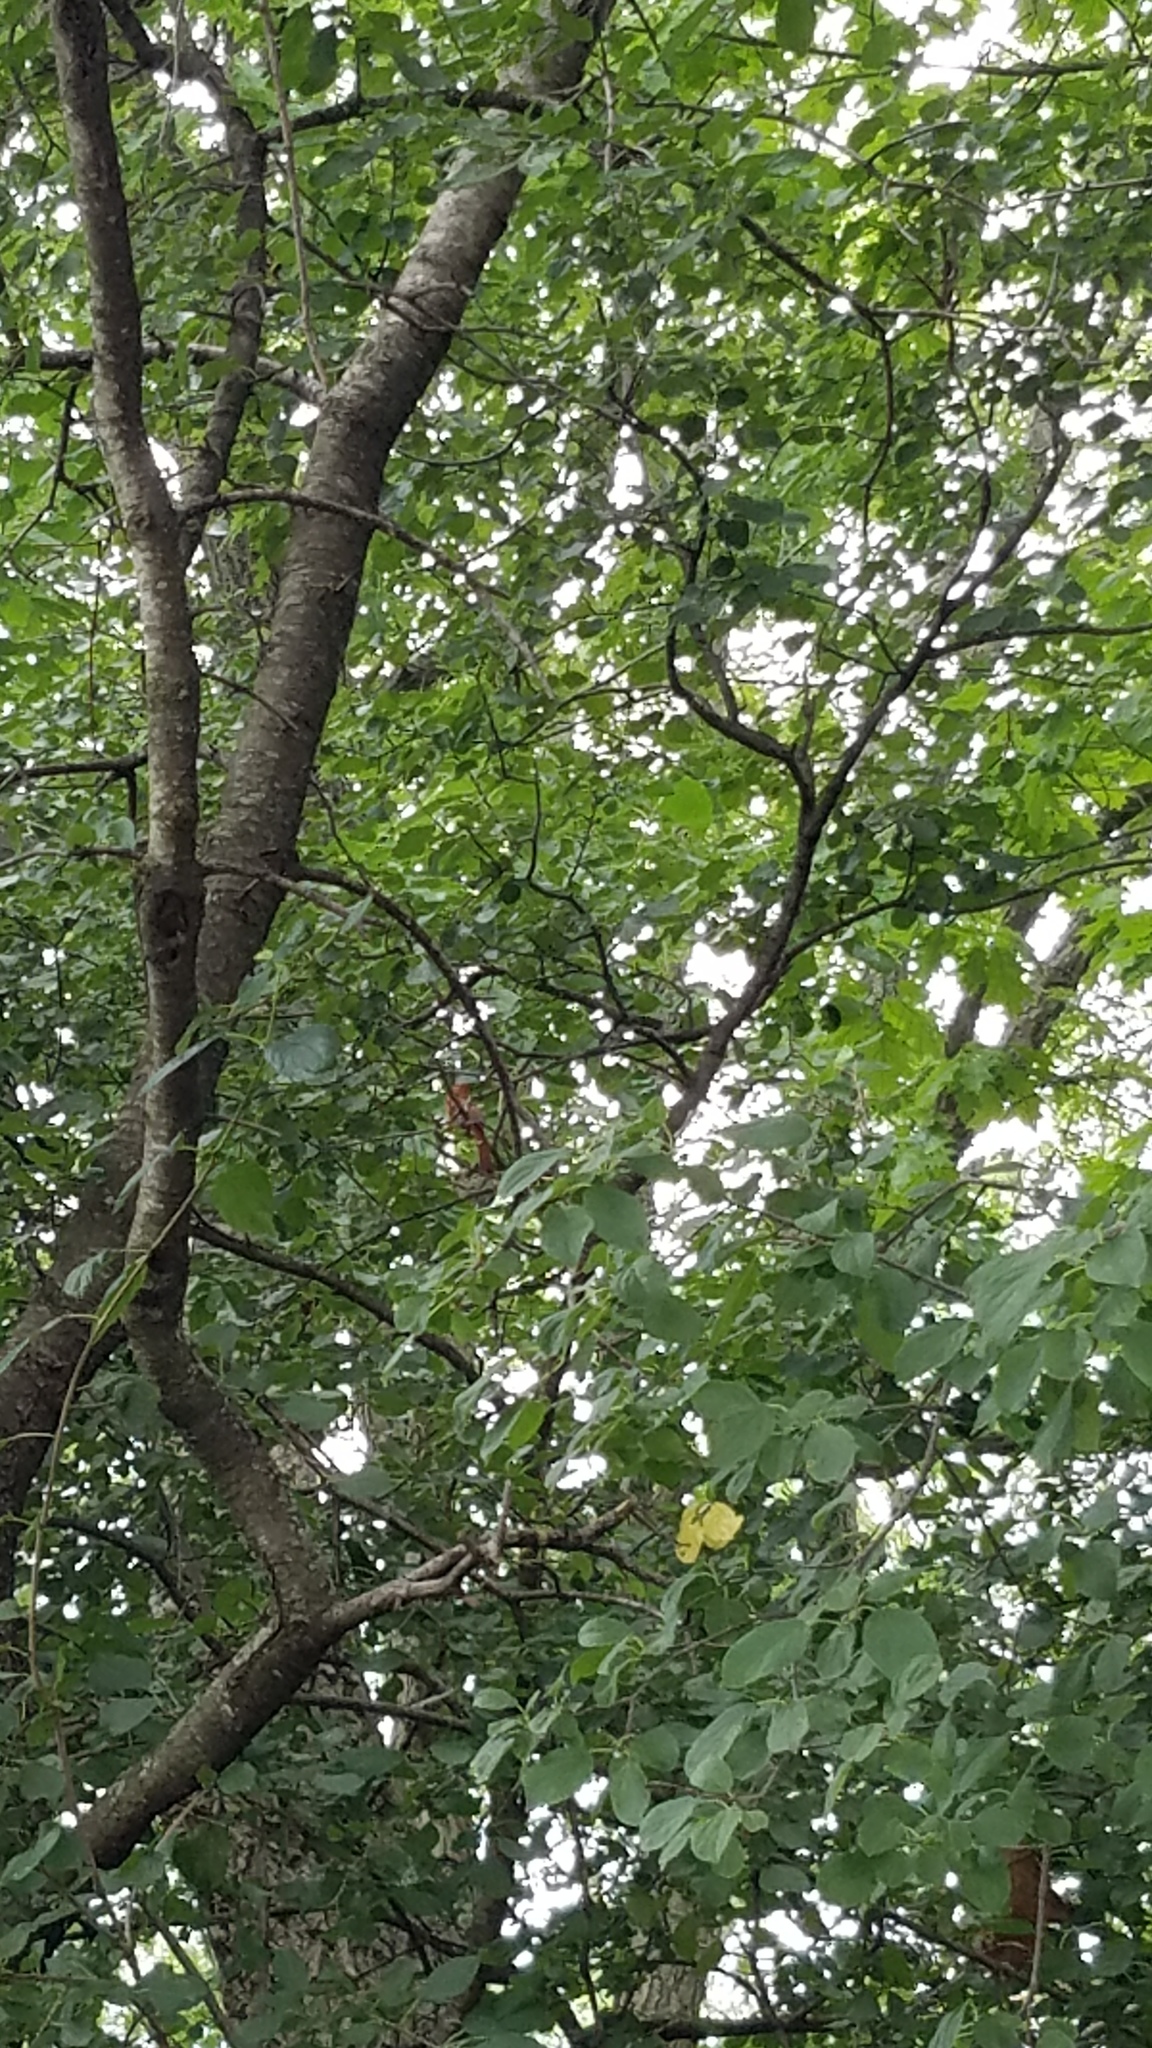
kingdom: Animalia
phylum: Chordata
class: Aves
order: Passeriformes
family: Cardinalidae
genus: Cardinalis
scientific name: Cardinalis cardinalis
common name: Northern cardinal
